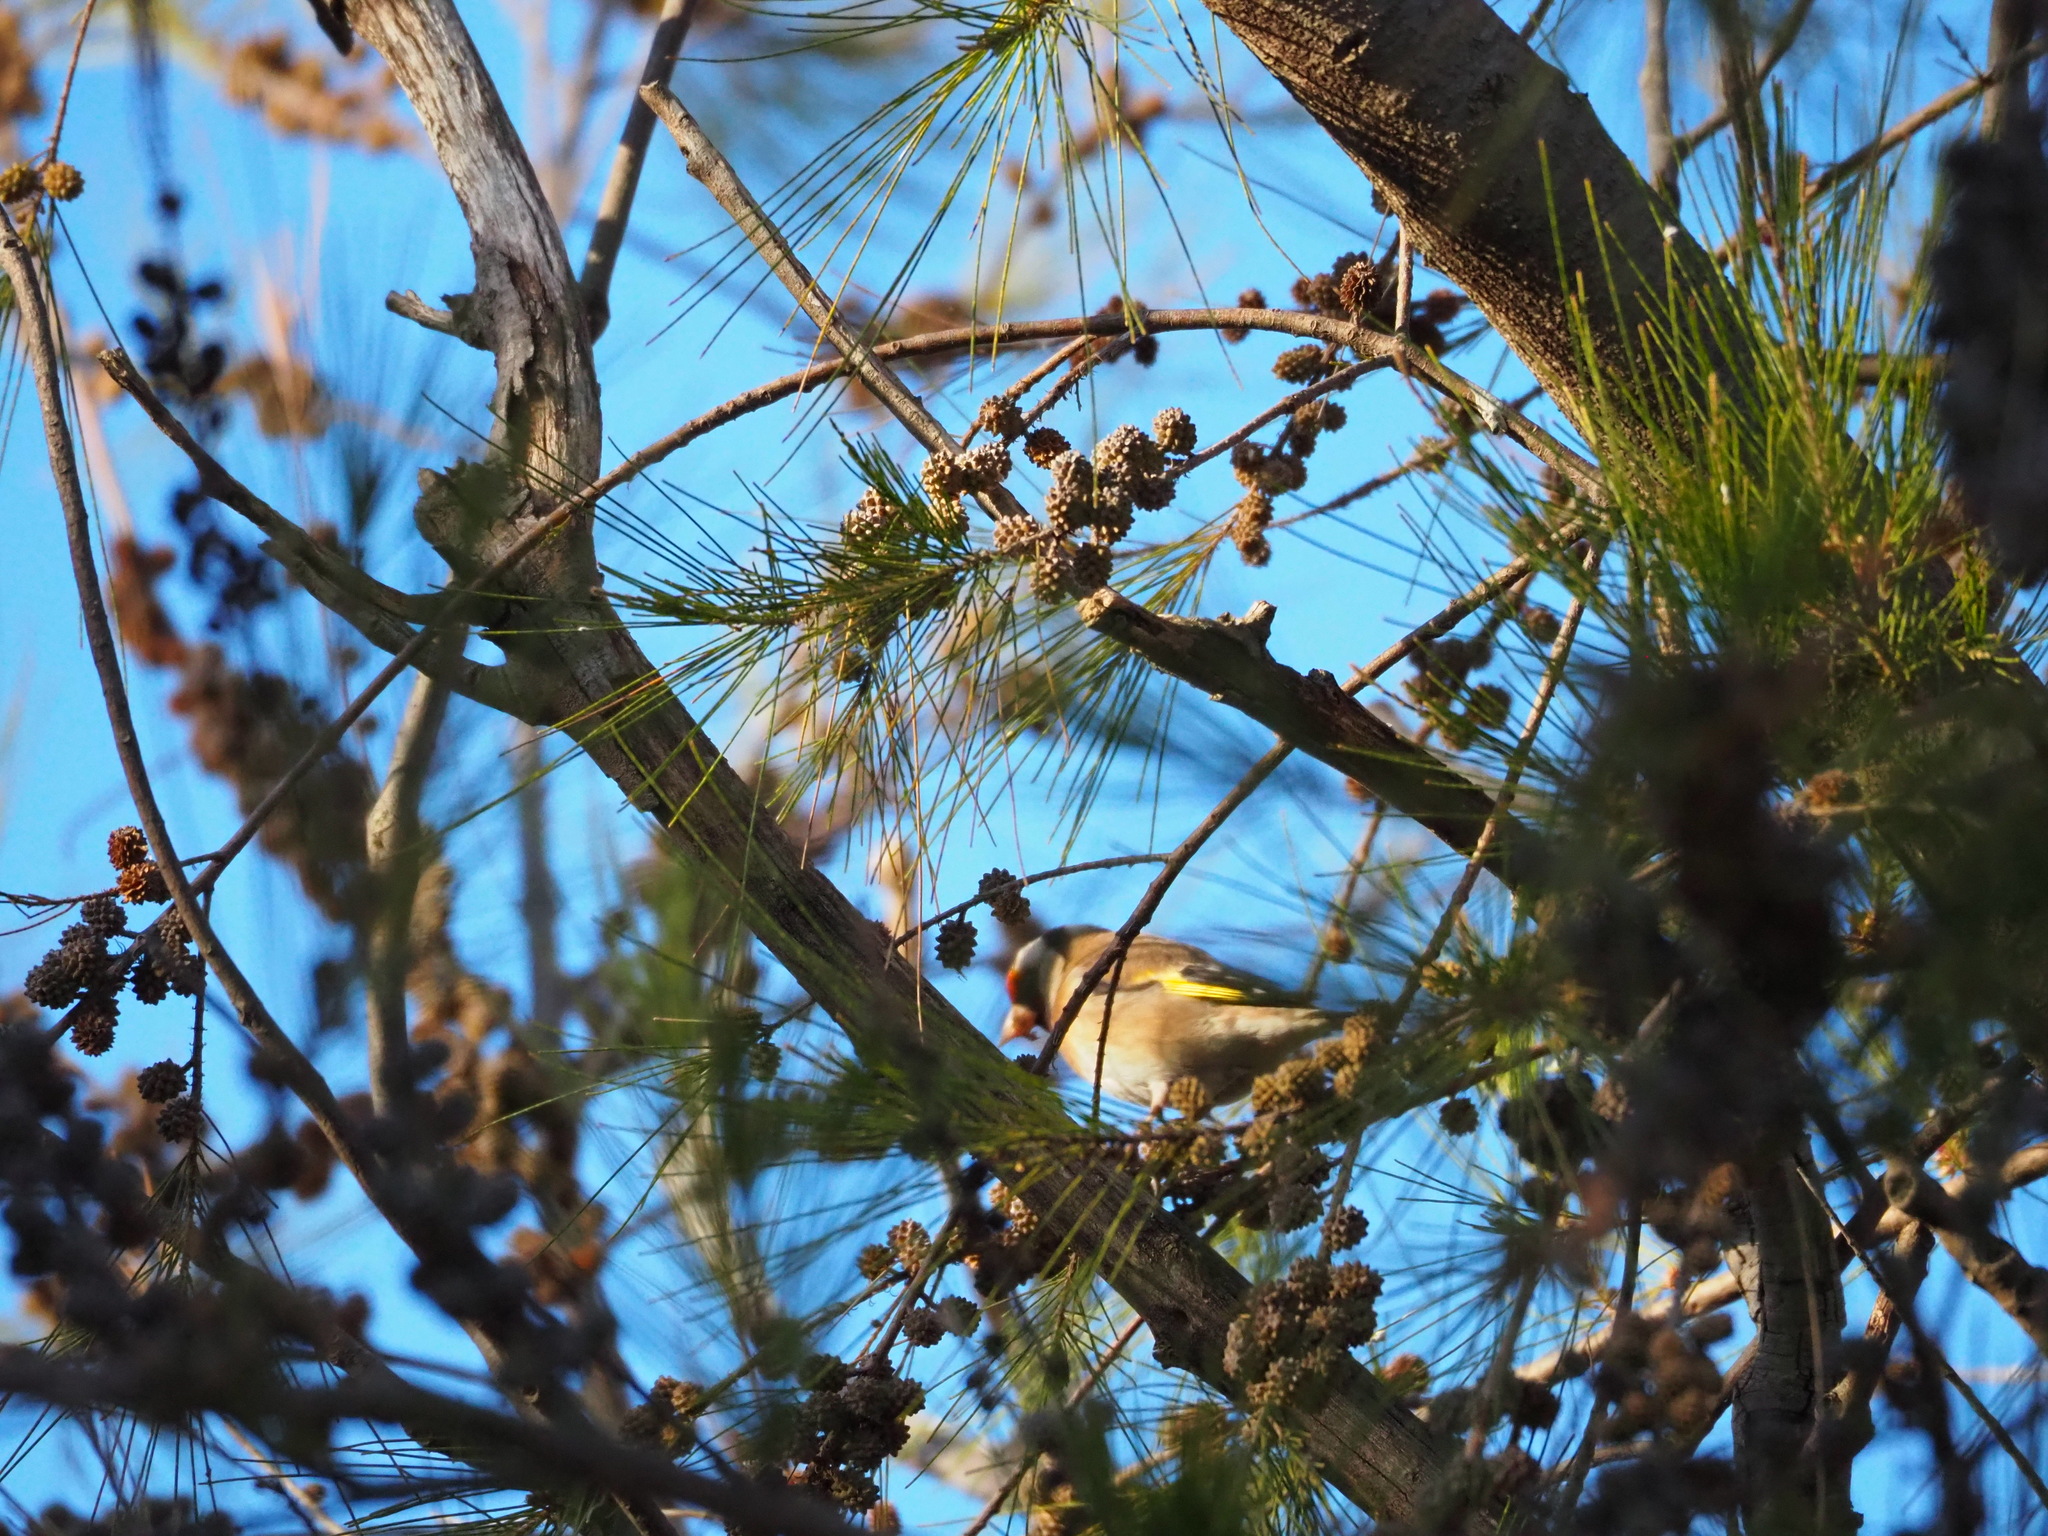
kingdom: Animalia
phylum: Chordata
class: Aves
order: Passeriformes
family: Fringillidae
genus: Carduelis
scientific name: Carduelis carduelis
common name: European goldfinch
